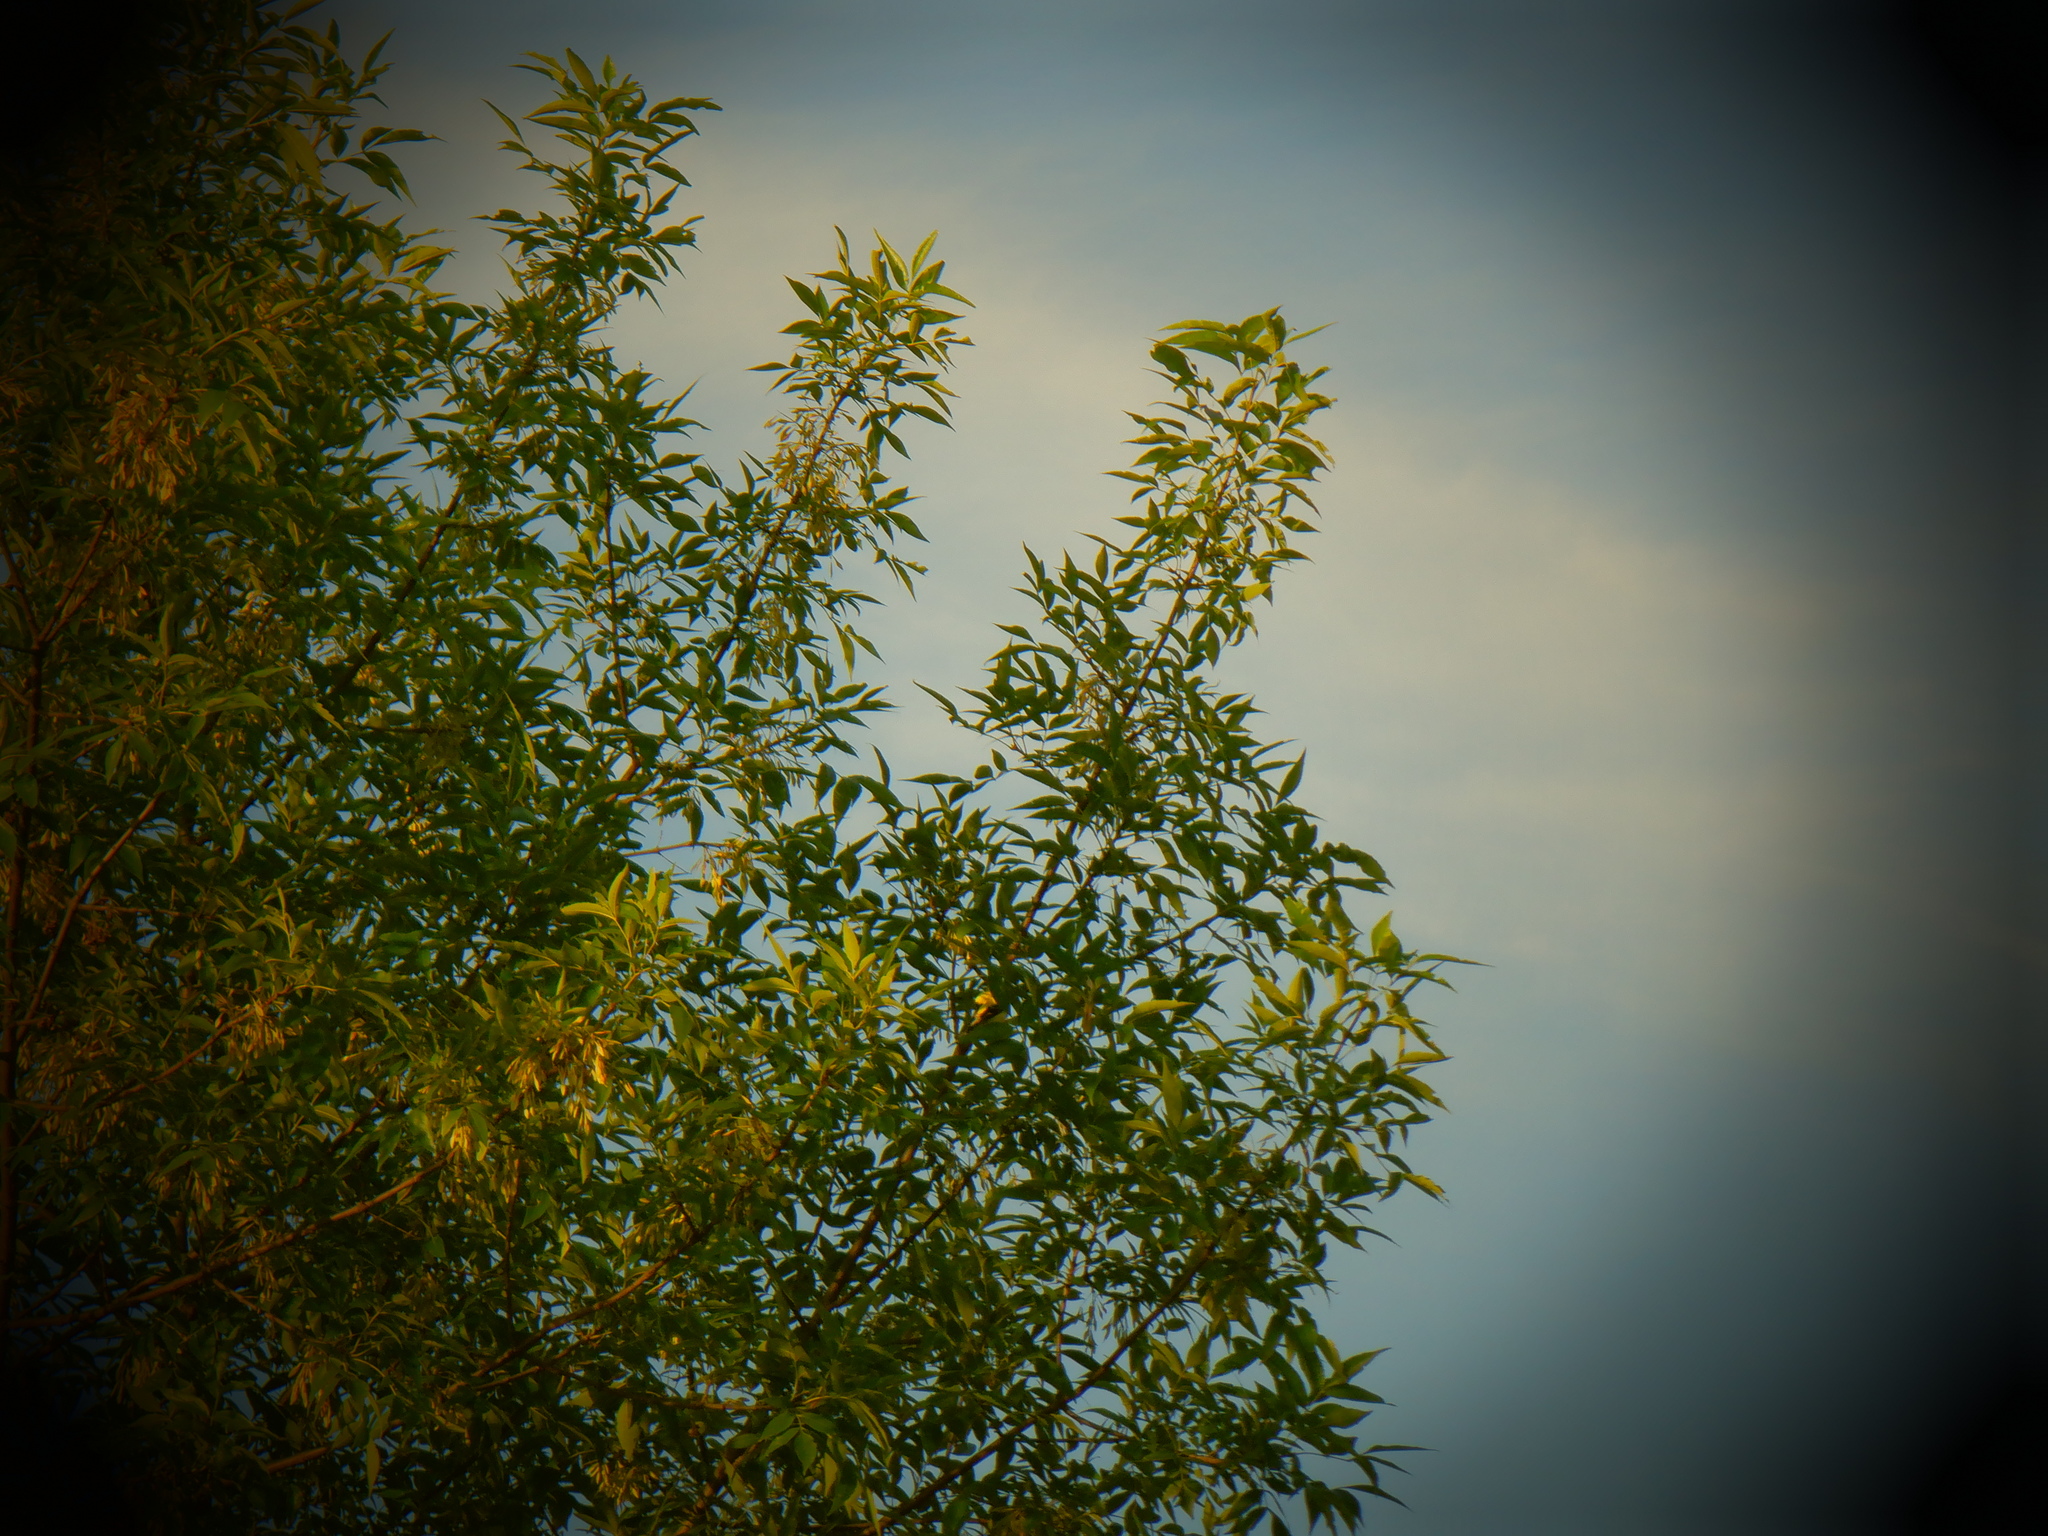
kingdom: Animalia
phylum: Chordata
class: Aves
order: Passeriformes
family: Fringillidae
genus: Spinus
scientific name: Spinus tristis
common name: American goldfinch
